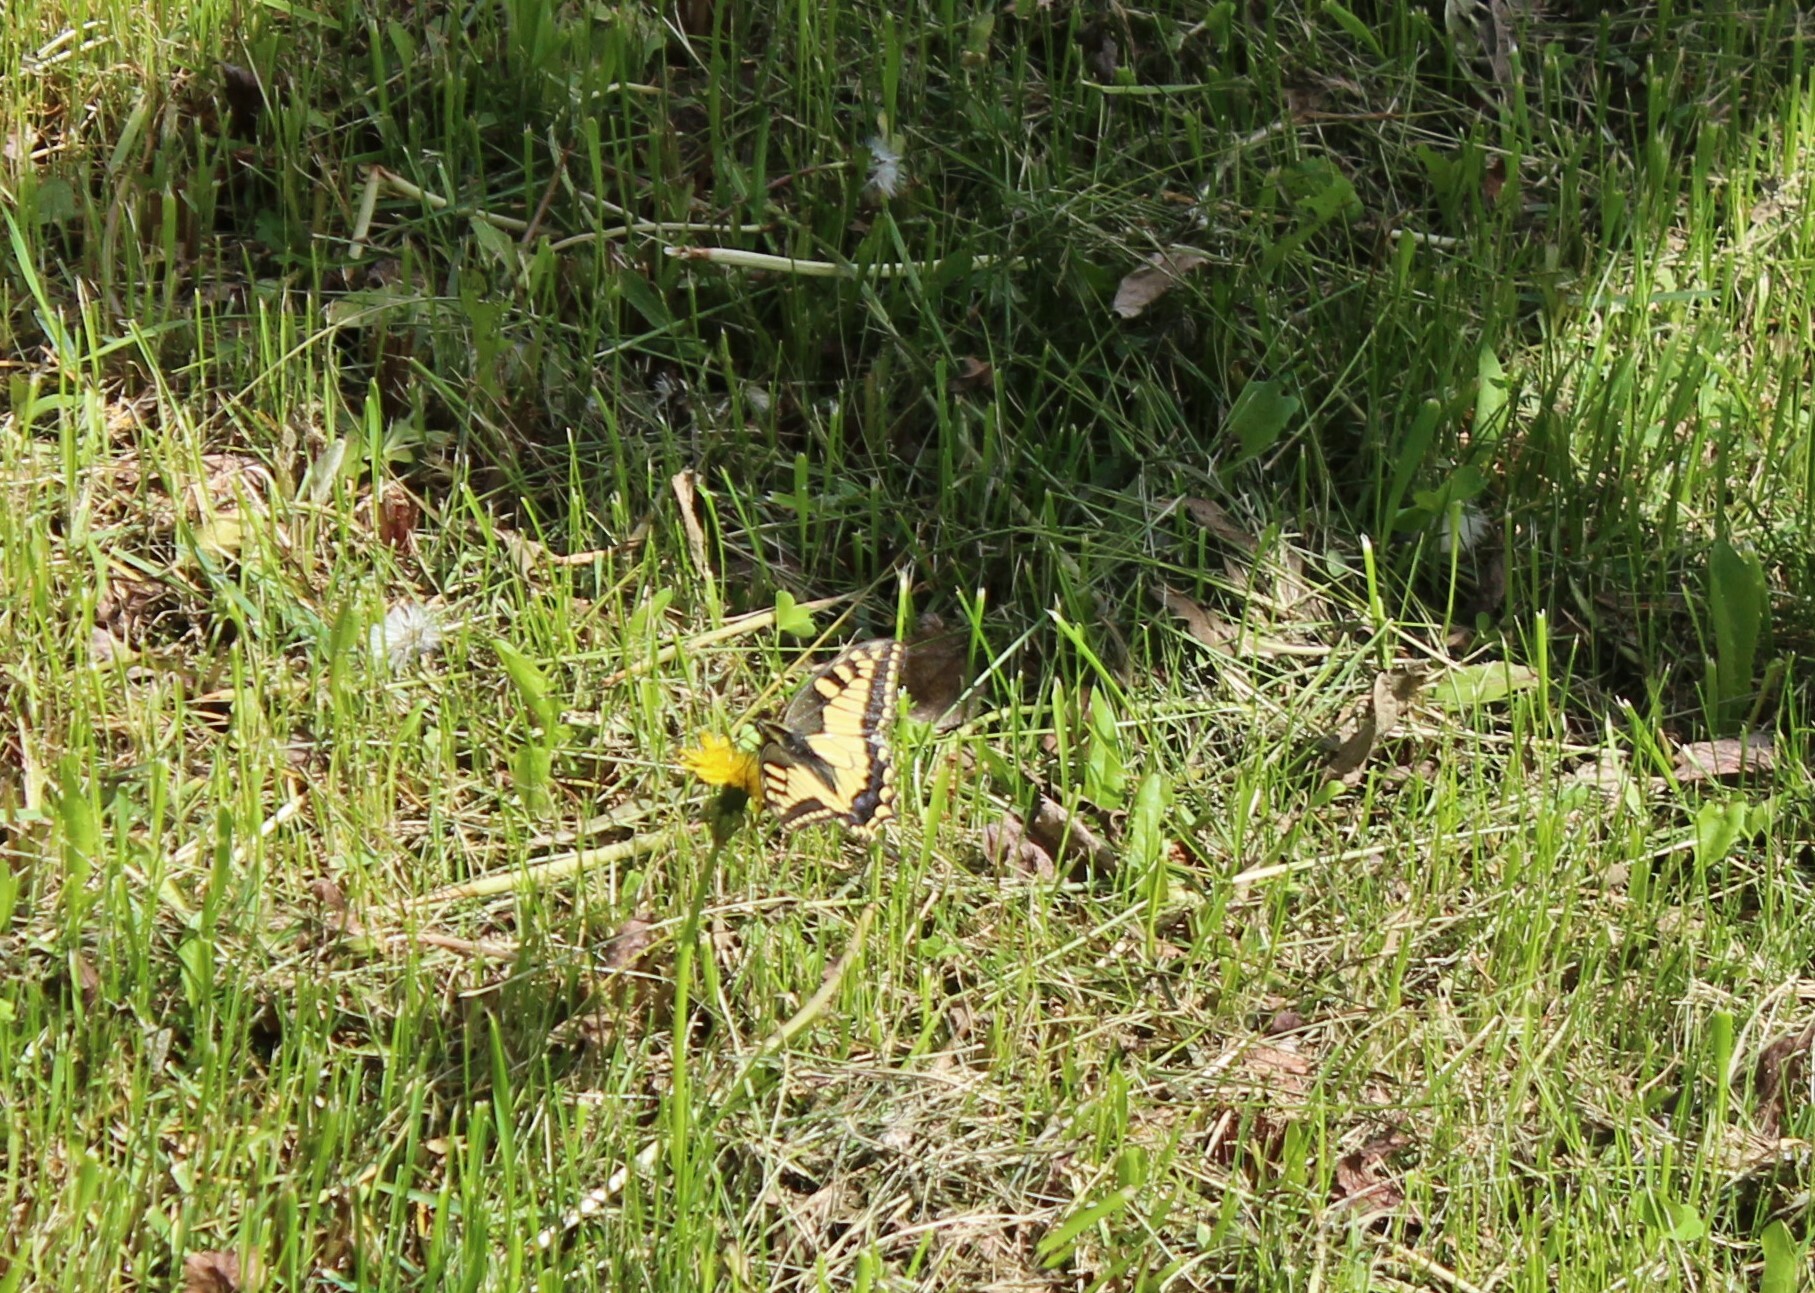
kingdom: Animalia
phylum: Arthropoda
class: Insecta
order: Lepidoptera
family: Papilionidae
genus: Papilio
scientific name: Papilio machaon
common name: Swallowtail
